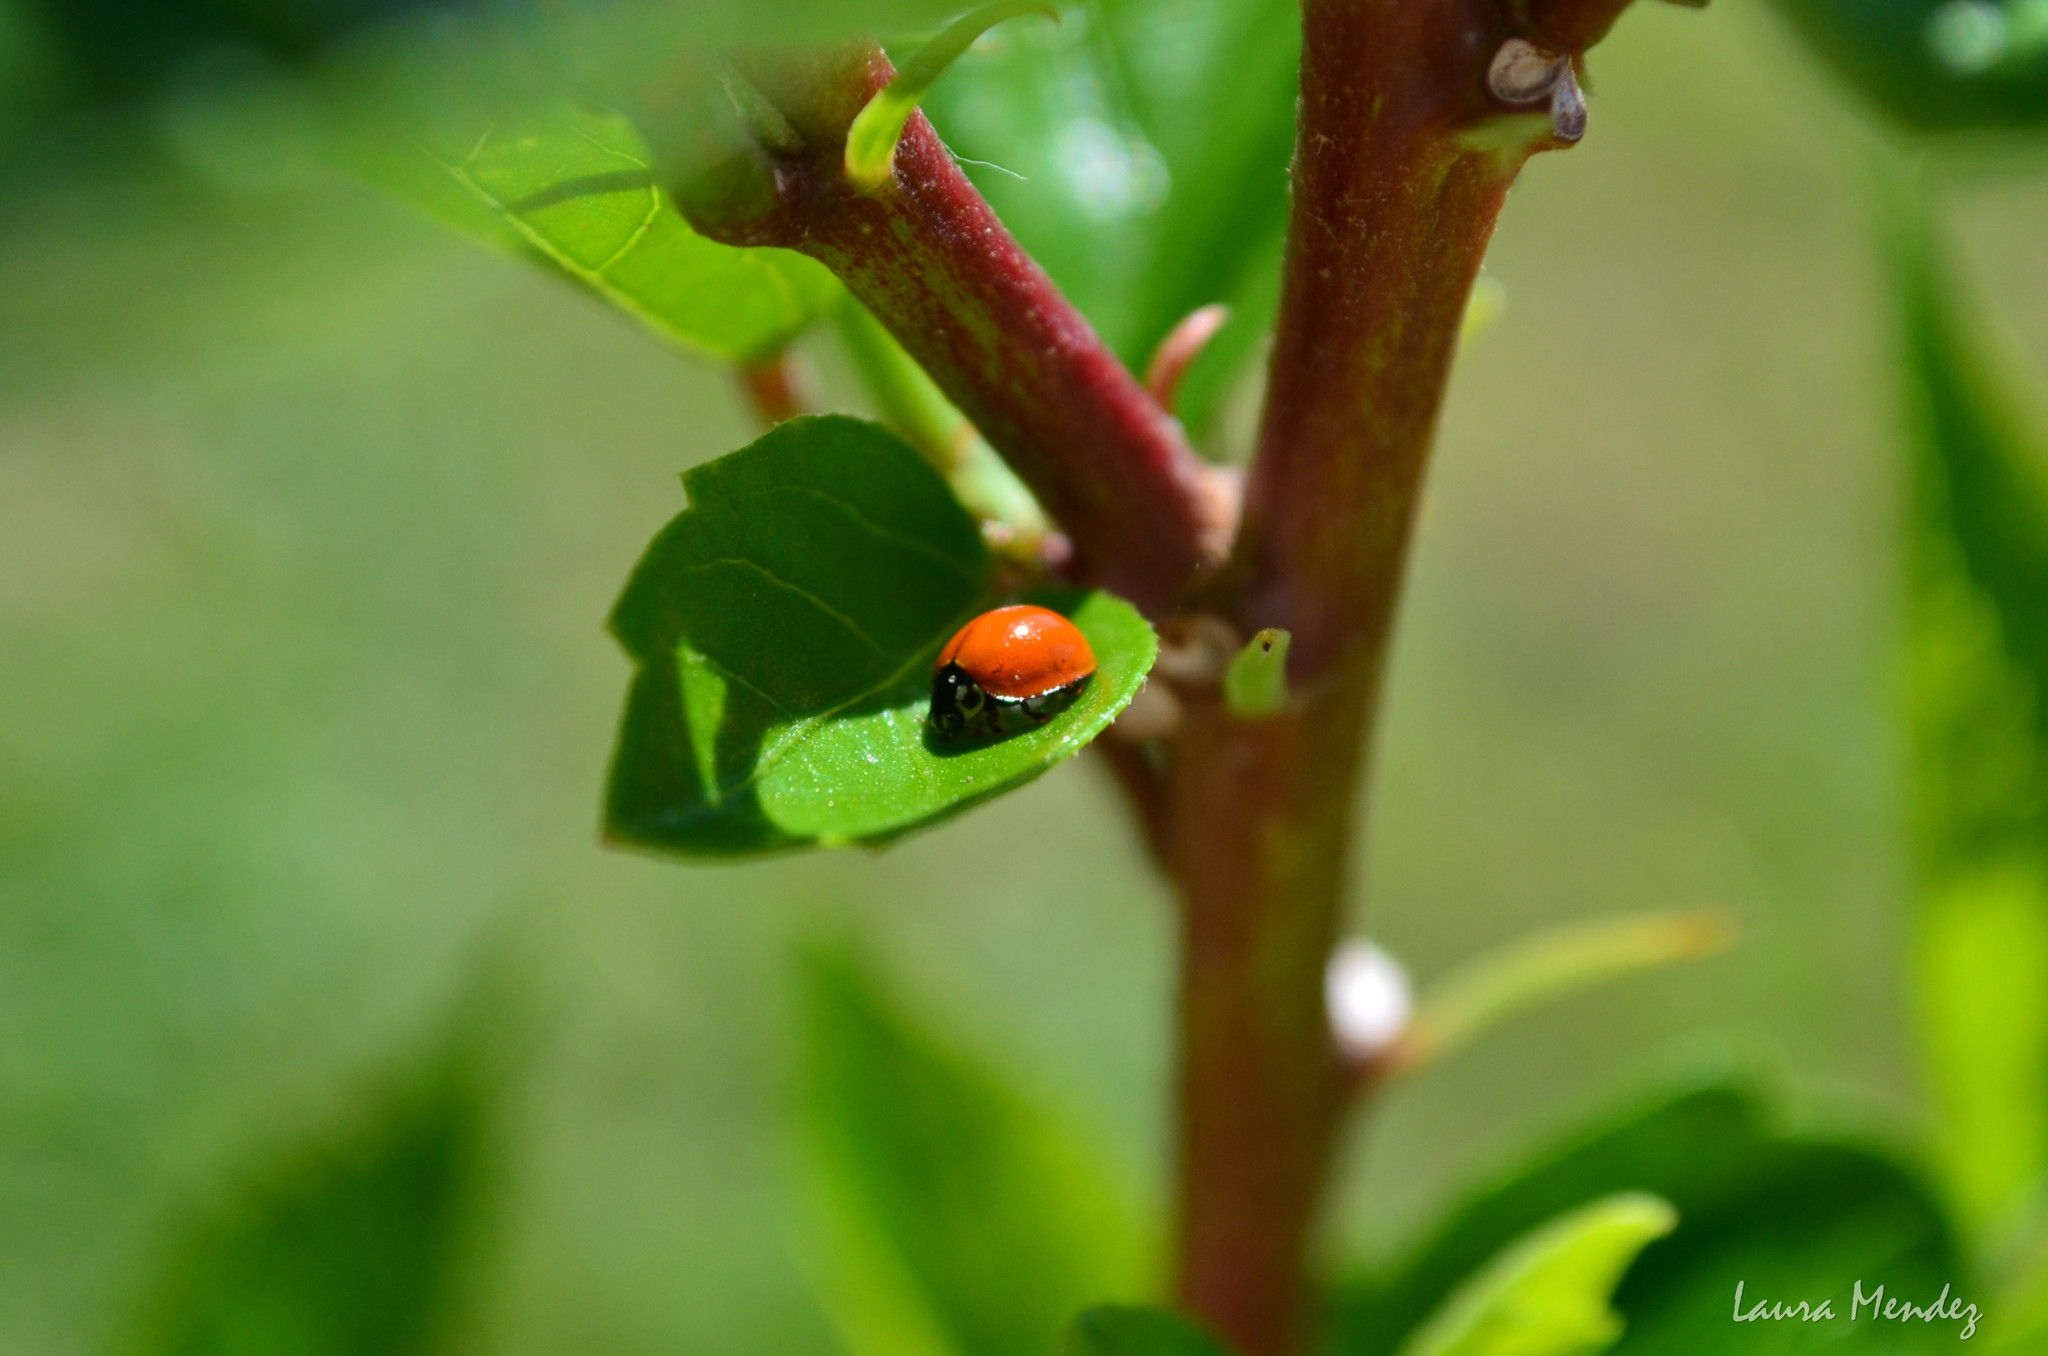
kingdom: Animalia
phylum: Arthropoda
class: Insecta
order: Coleoptera
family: Coccinellidae
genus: Cycloneda
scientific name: Cycloneda sanguinea
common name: Ladybird beetle
